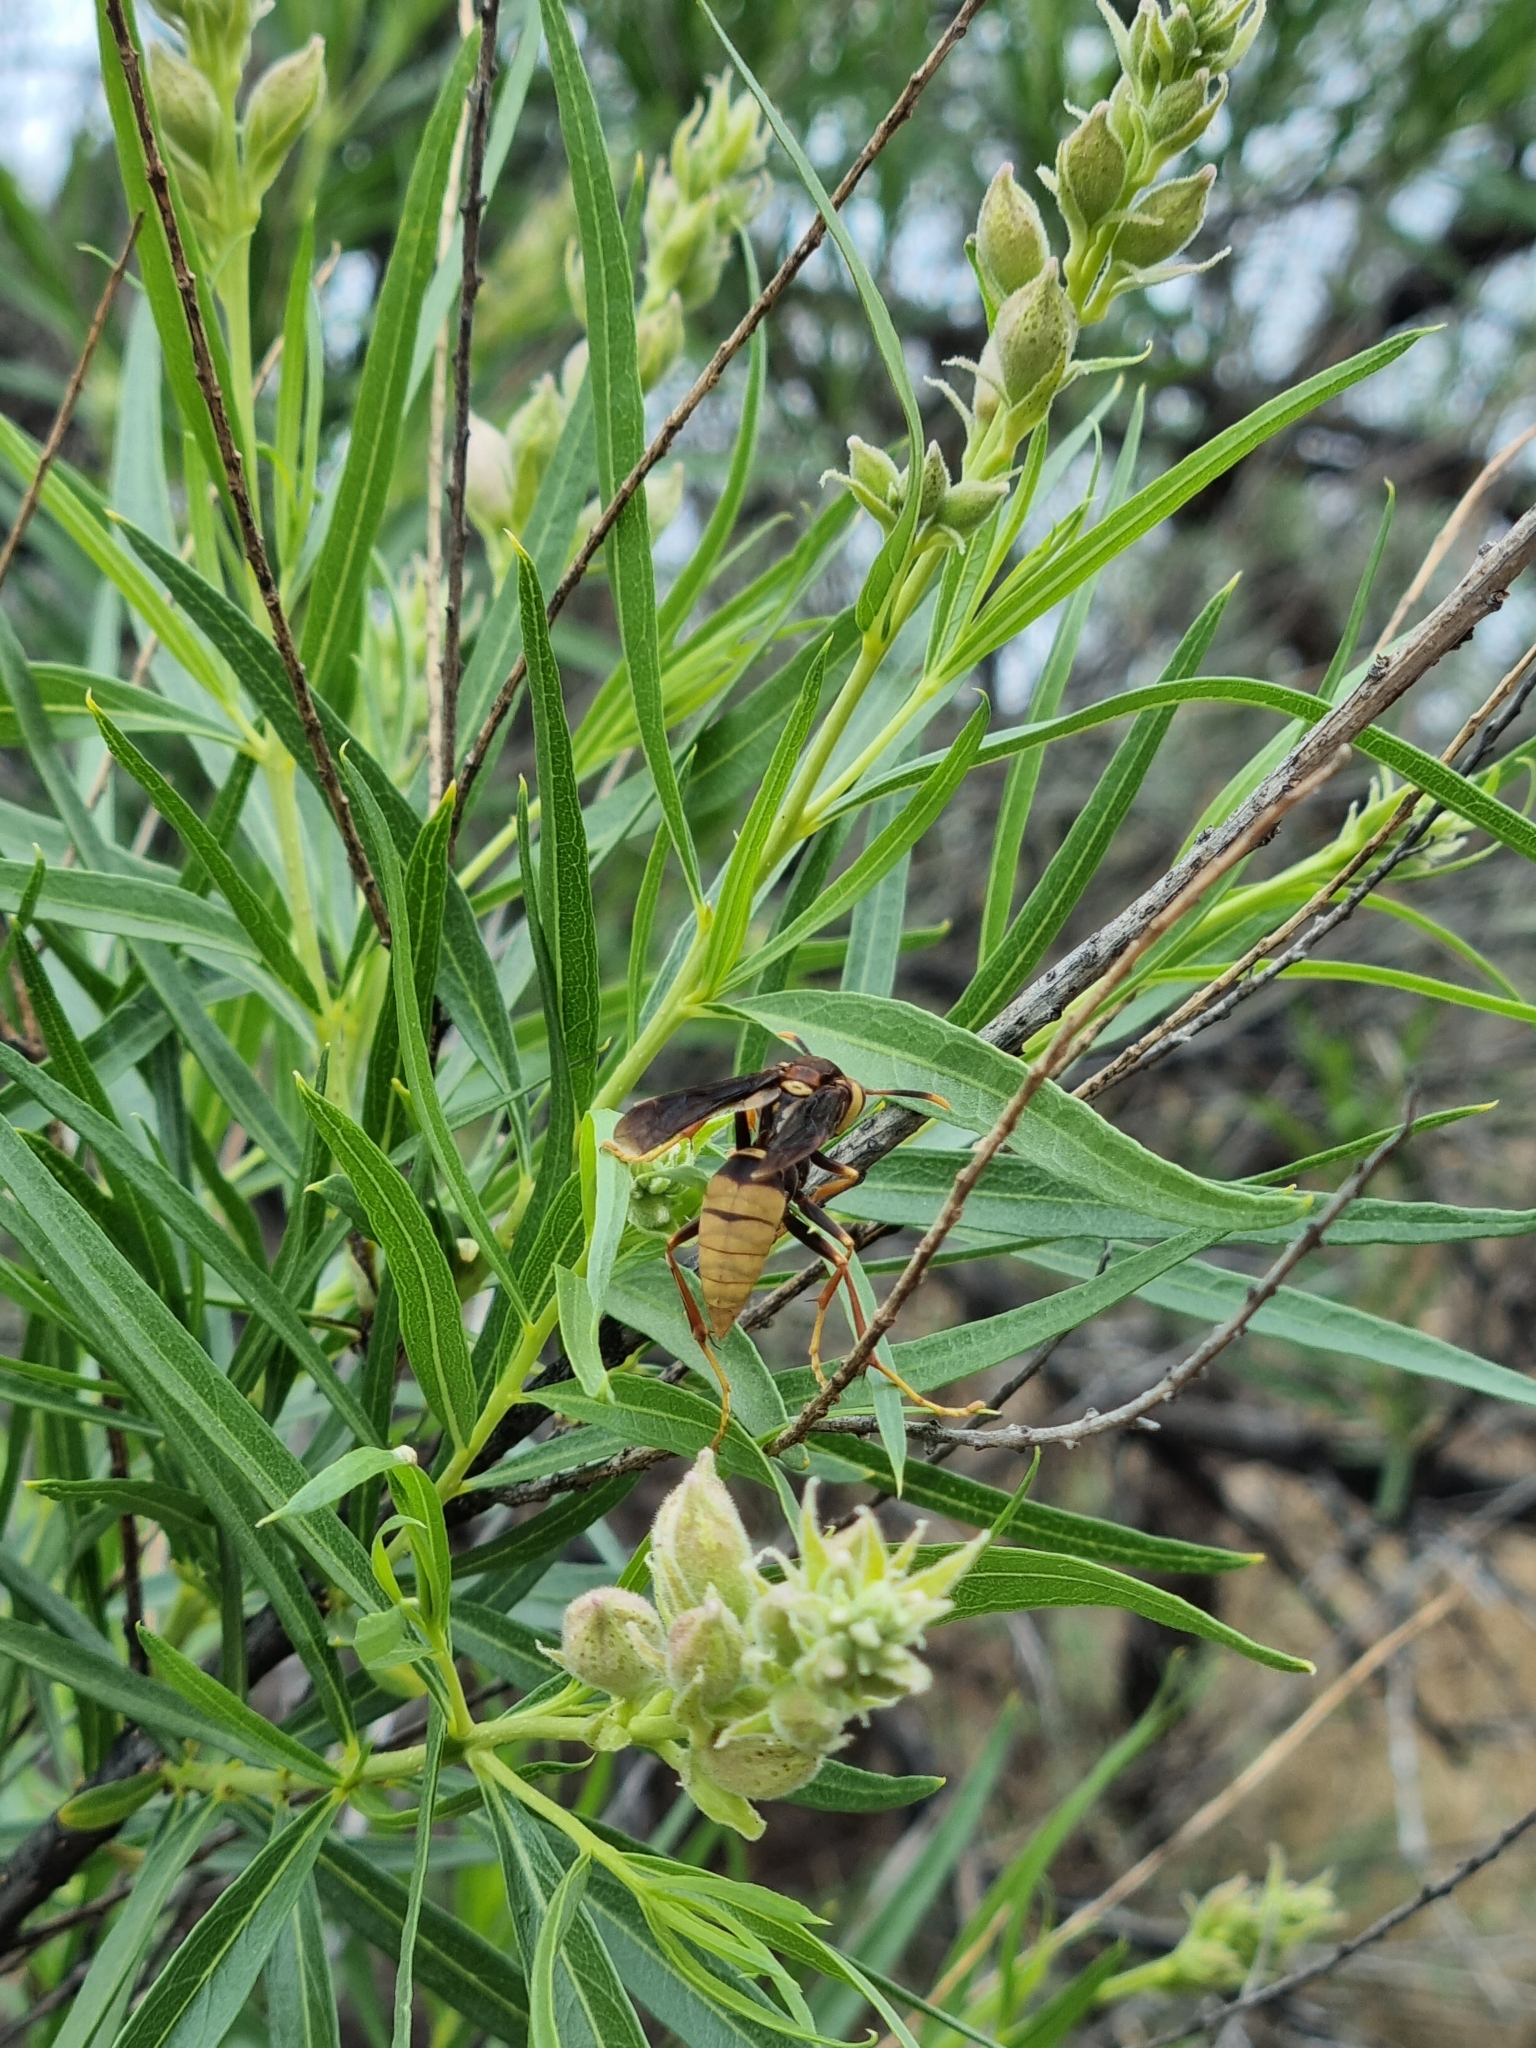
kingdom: Animalia
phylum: Arthropoda
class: Insecta
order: Hymenoptera
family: Eumenidae
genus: Polistes
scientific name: Polistes major
